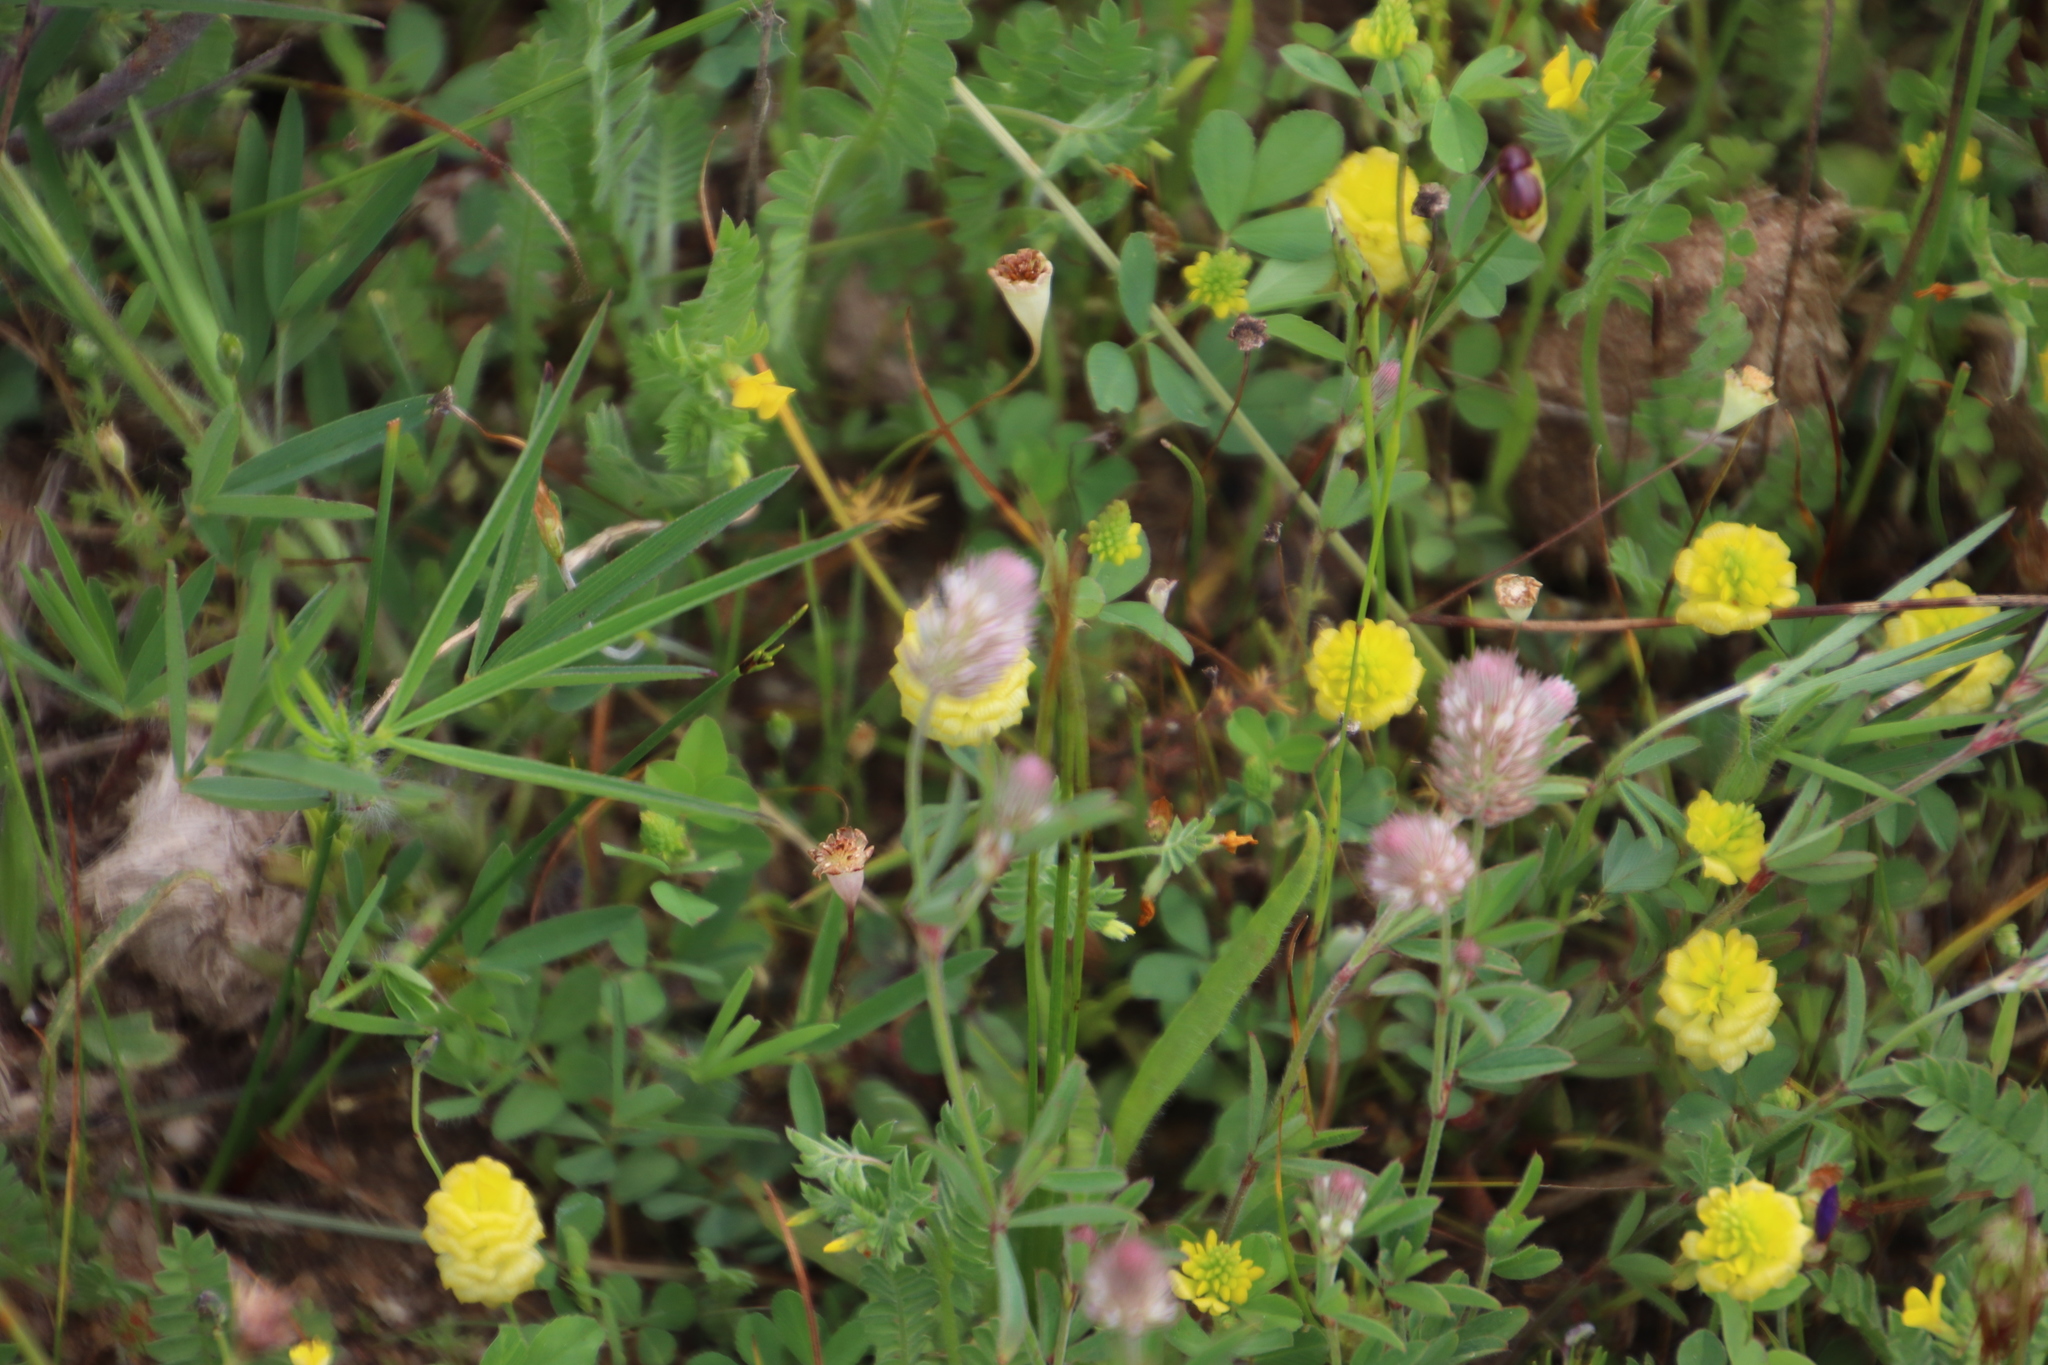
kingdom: Plantae
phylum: Tracheophyta
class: Magnoliopsida
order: Fabales
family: Fabaceae
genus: Trifolium
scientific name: Trifolium campestre
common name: Field clover
